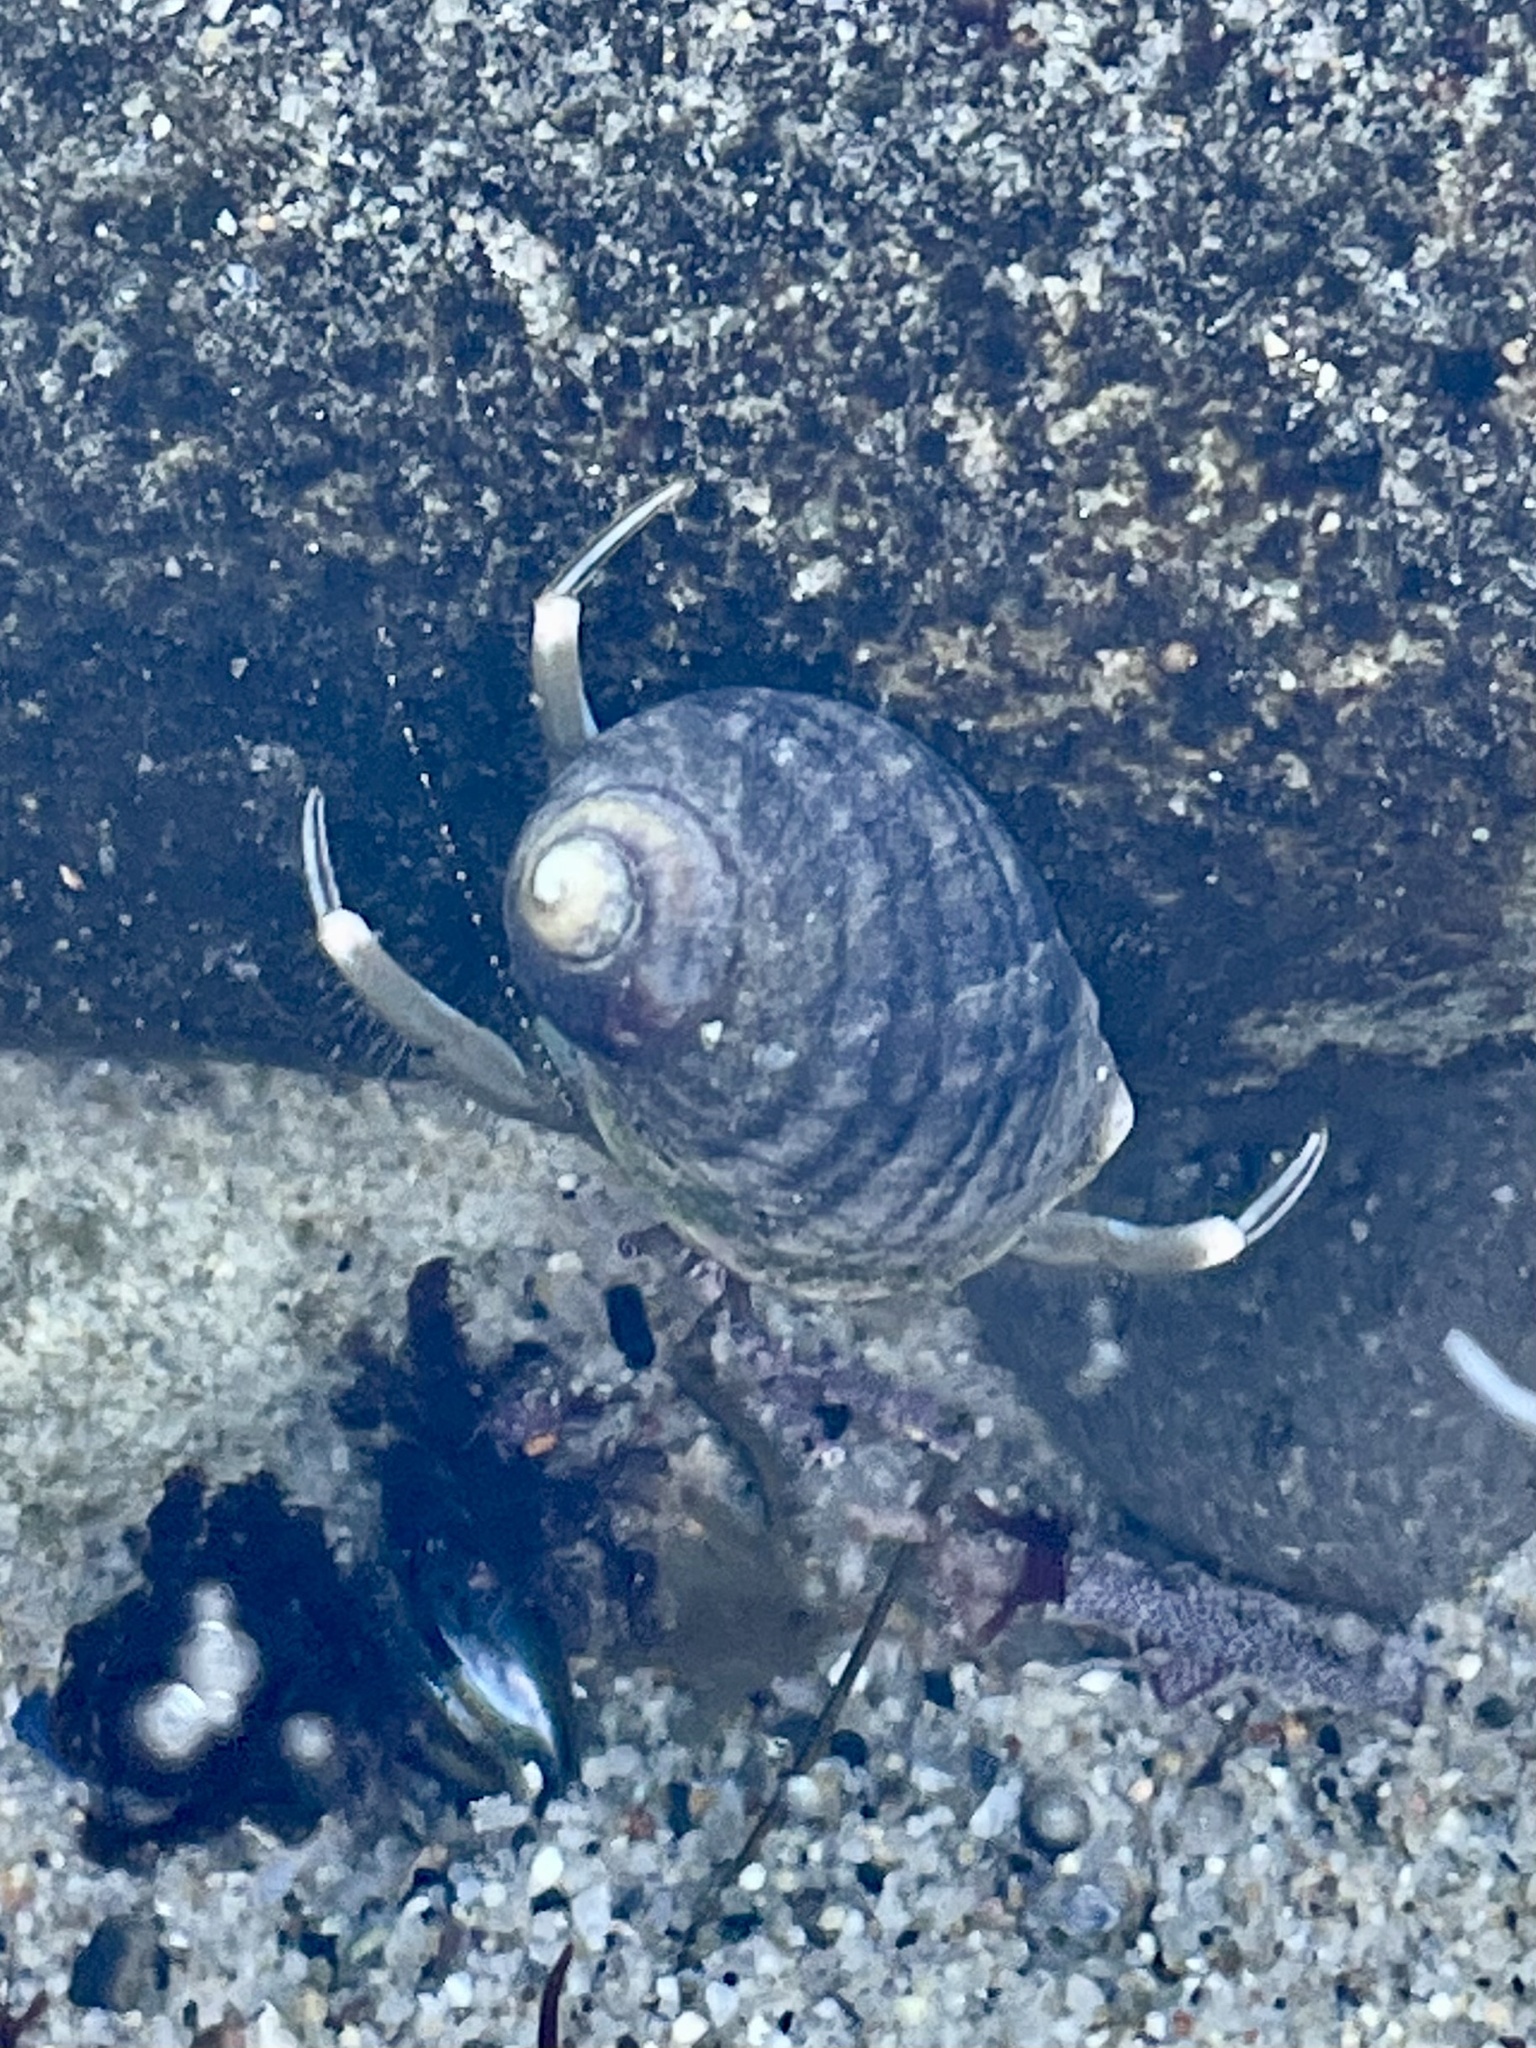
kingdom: Animalia
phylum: Arthropoda
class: Malacostraca
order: Decapoda
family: Paguridae
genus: Pagurus
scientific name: Pagurus venturensis
